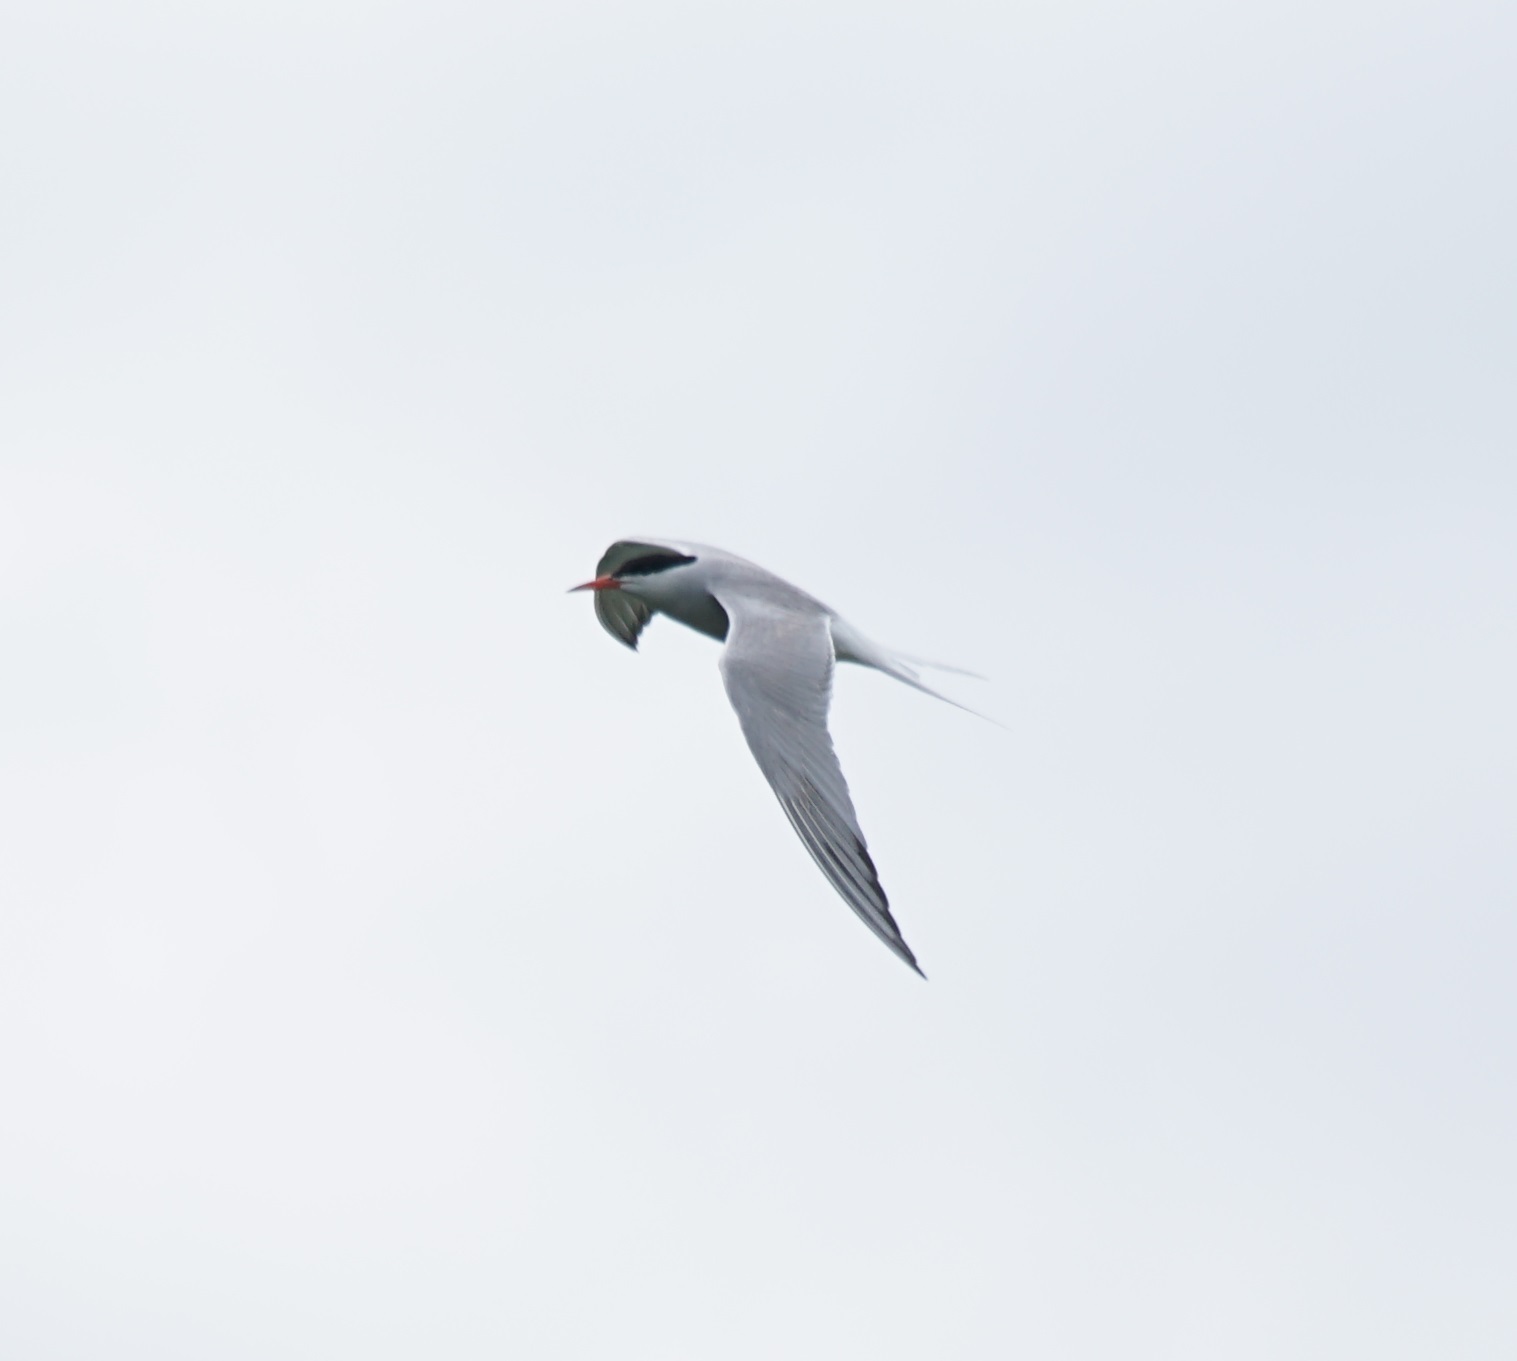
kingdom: Animalia
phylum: Chordata
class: Aves
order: Charadriiformes
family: Laridae
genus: Sterna
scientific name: Sterna hirundo
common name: Common tern
